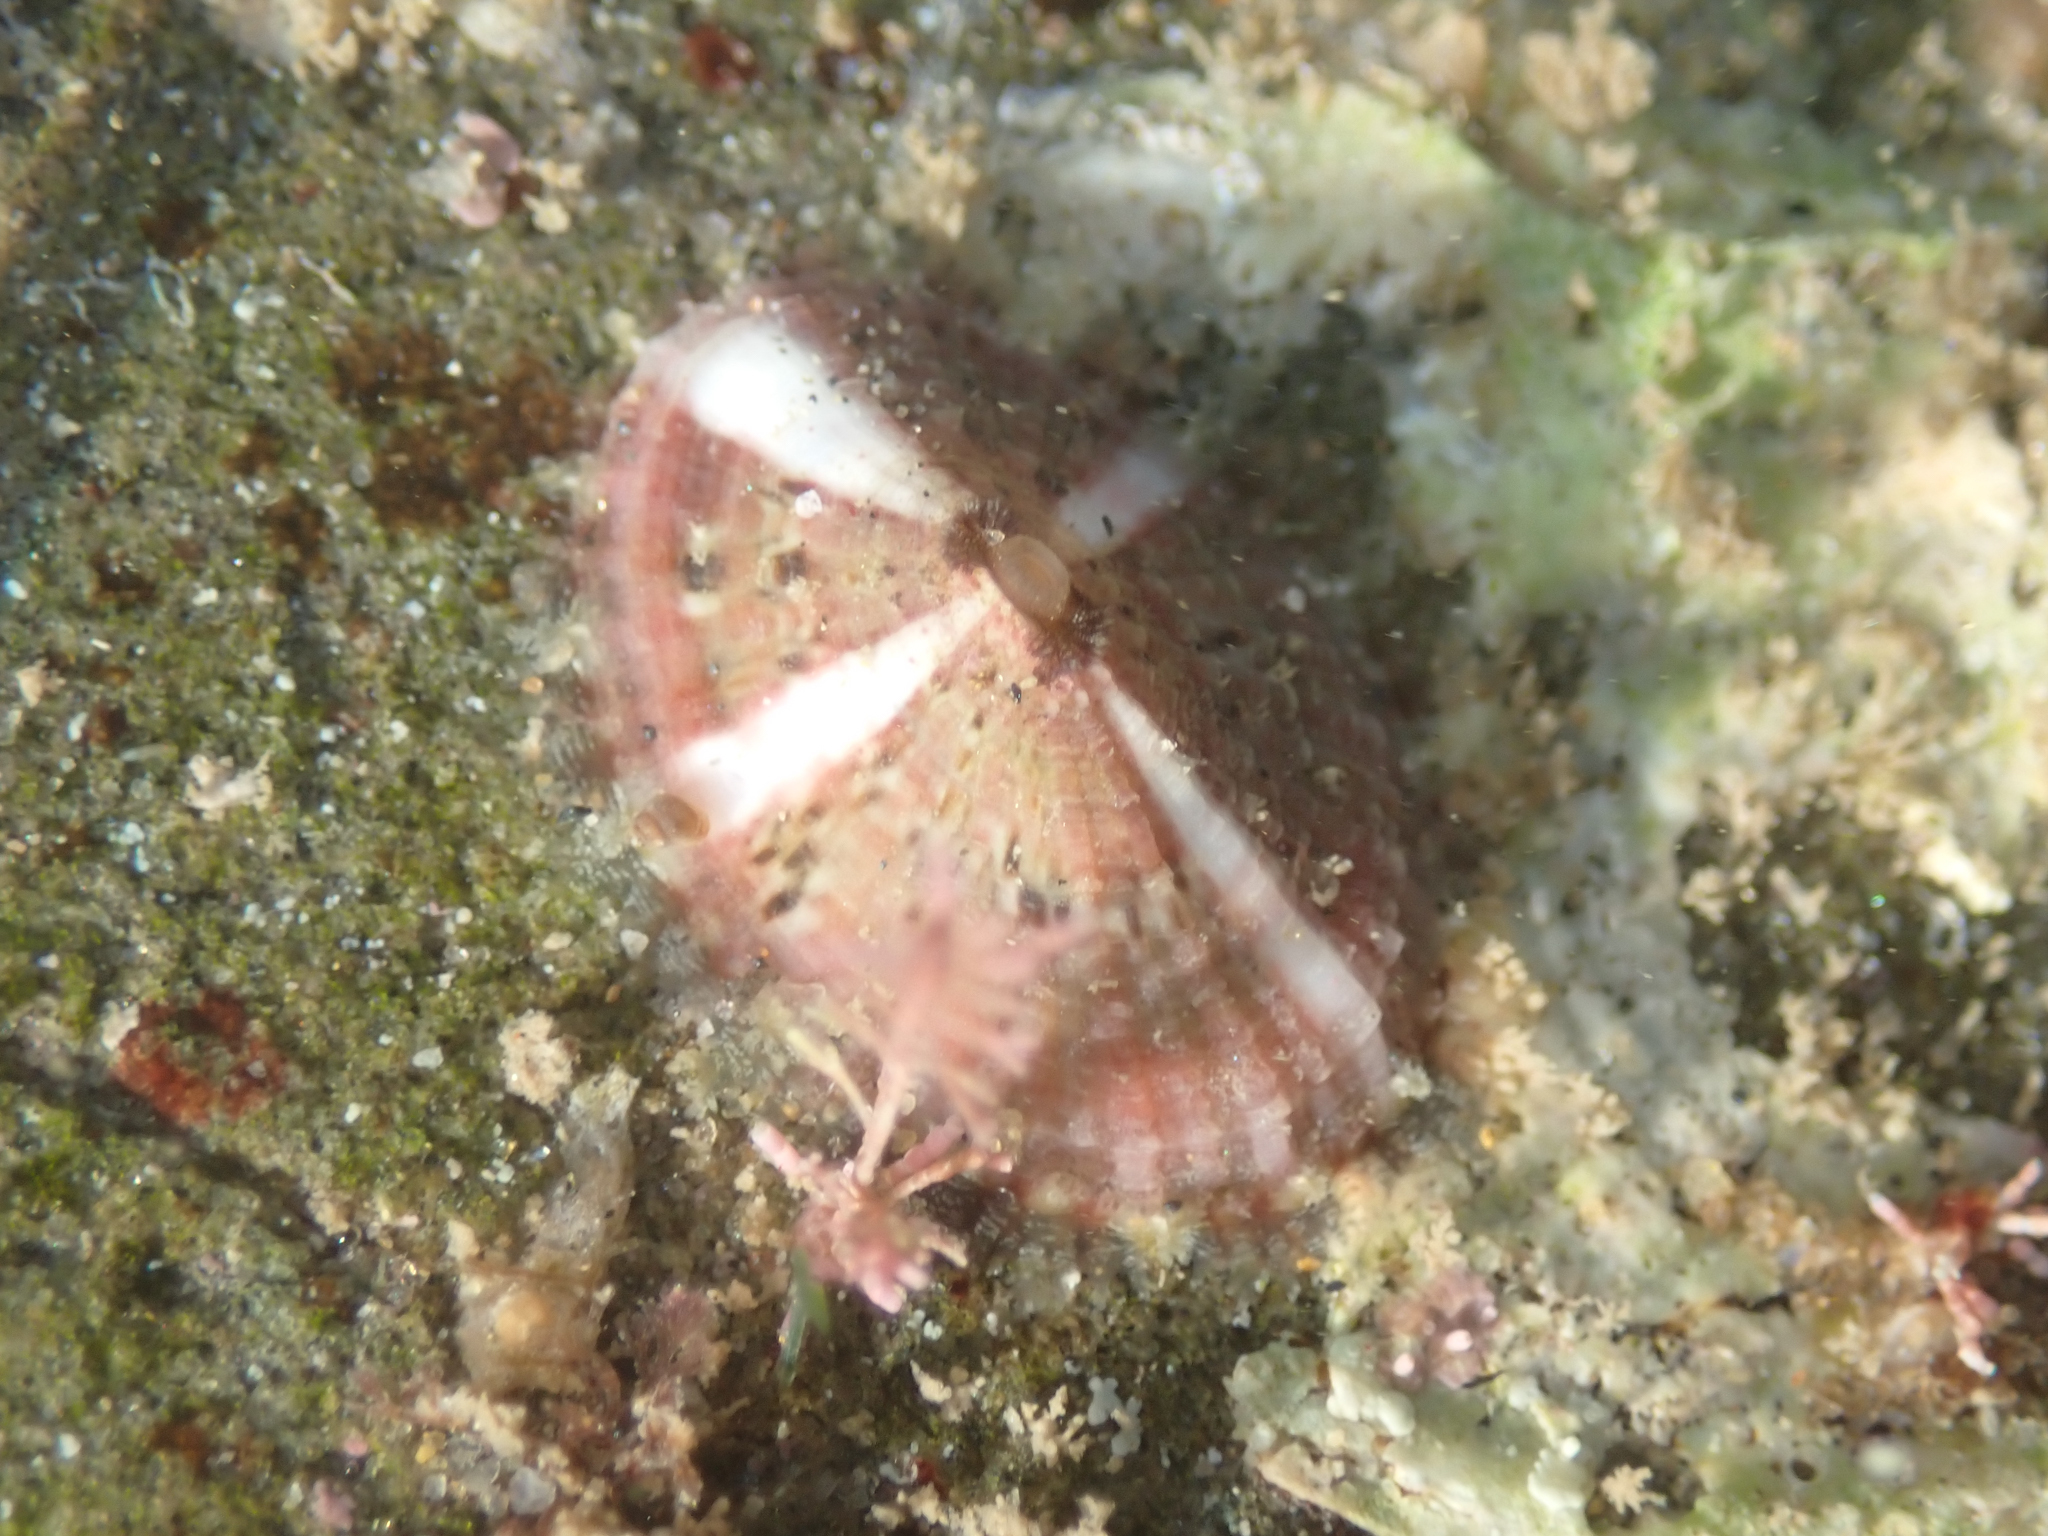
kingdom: Animalia
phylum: Mollusca
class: Gastropoda
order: Lepetellida
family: Fissurellidae
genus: Fissurella
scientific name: Fissurella volcano
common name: Volcano keyhole limpet
